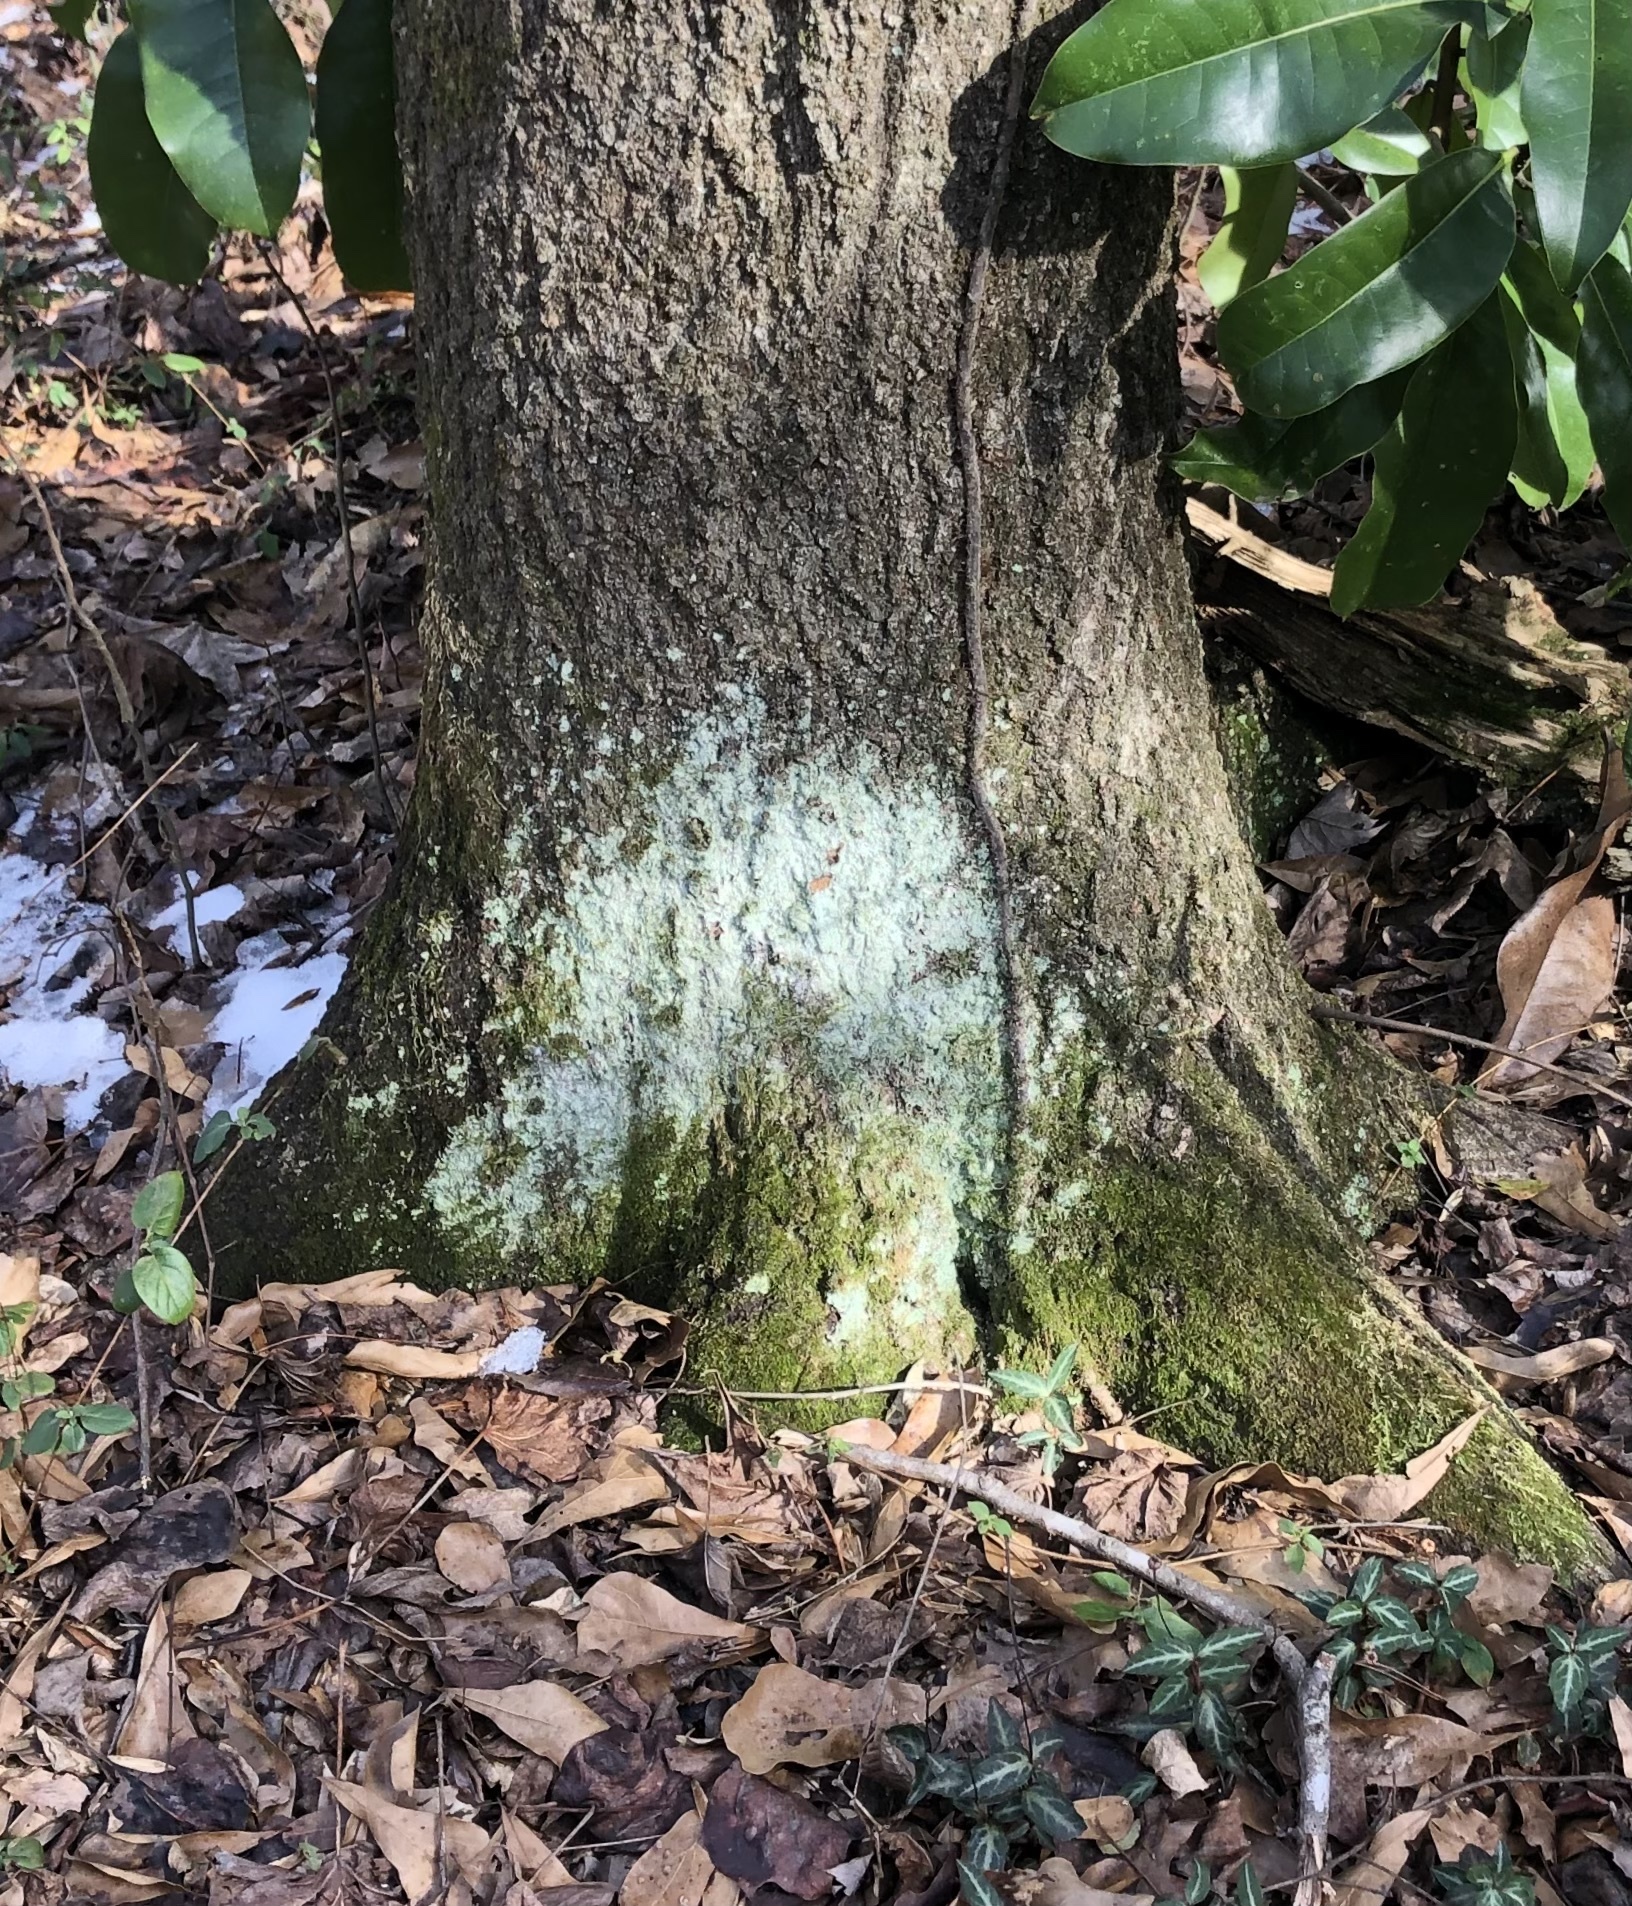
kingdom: Fungi
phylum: Ascomycota
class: Lecanoromycetes
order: Lecanorales
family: Stereocaulaceae
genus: Lepraria
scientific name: Lepraria lobificans
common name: Fluffy dust lichen
